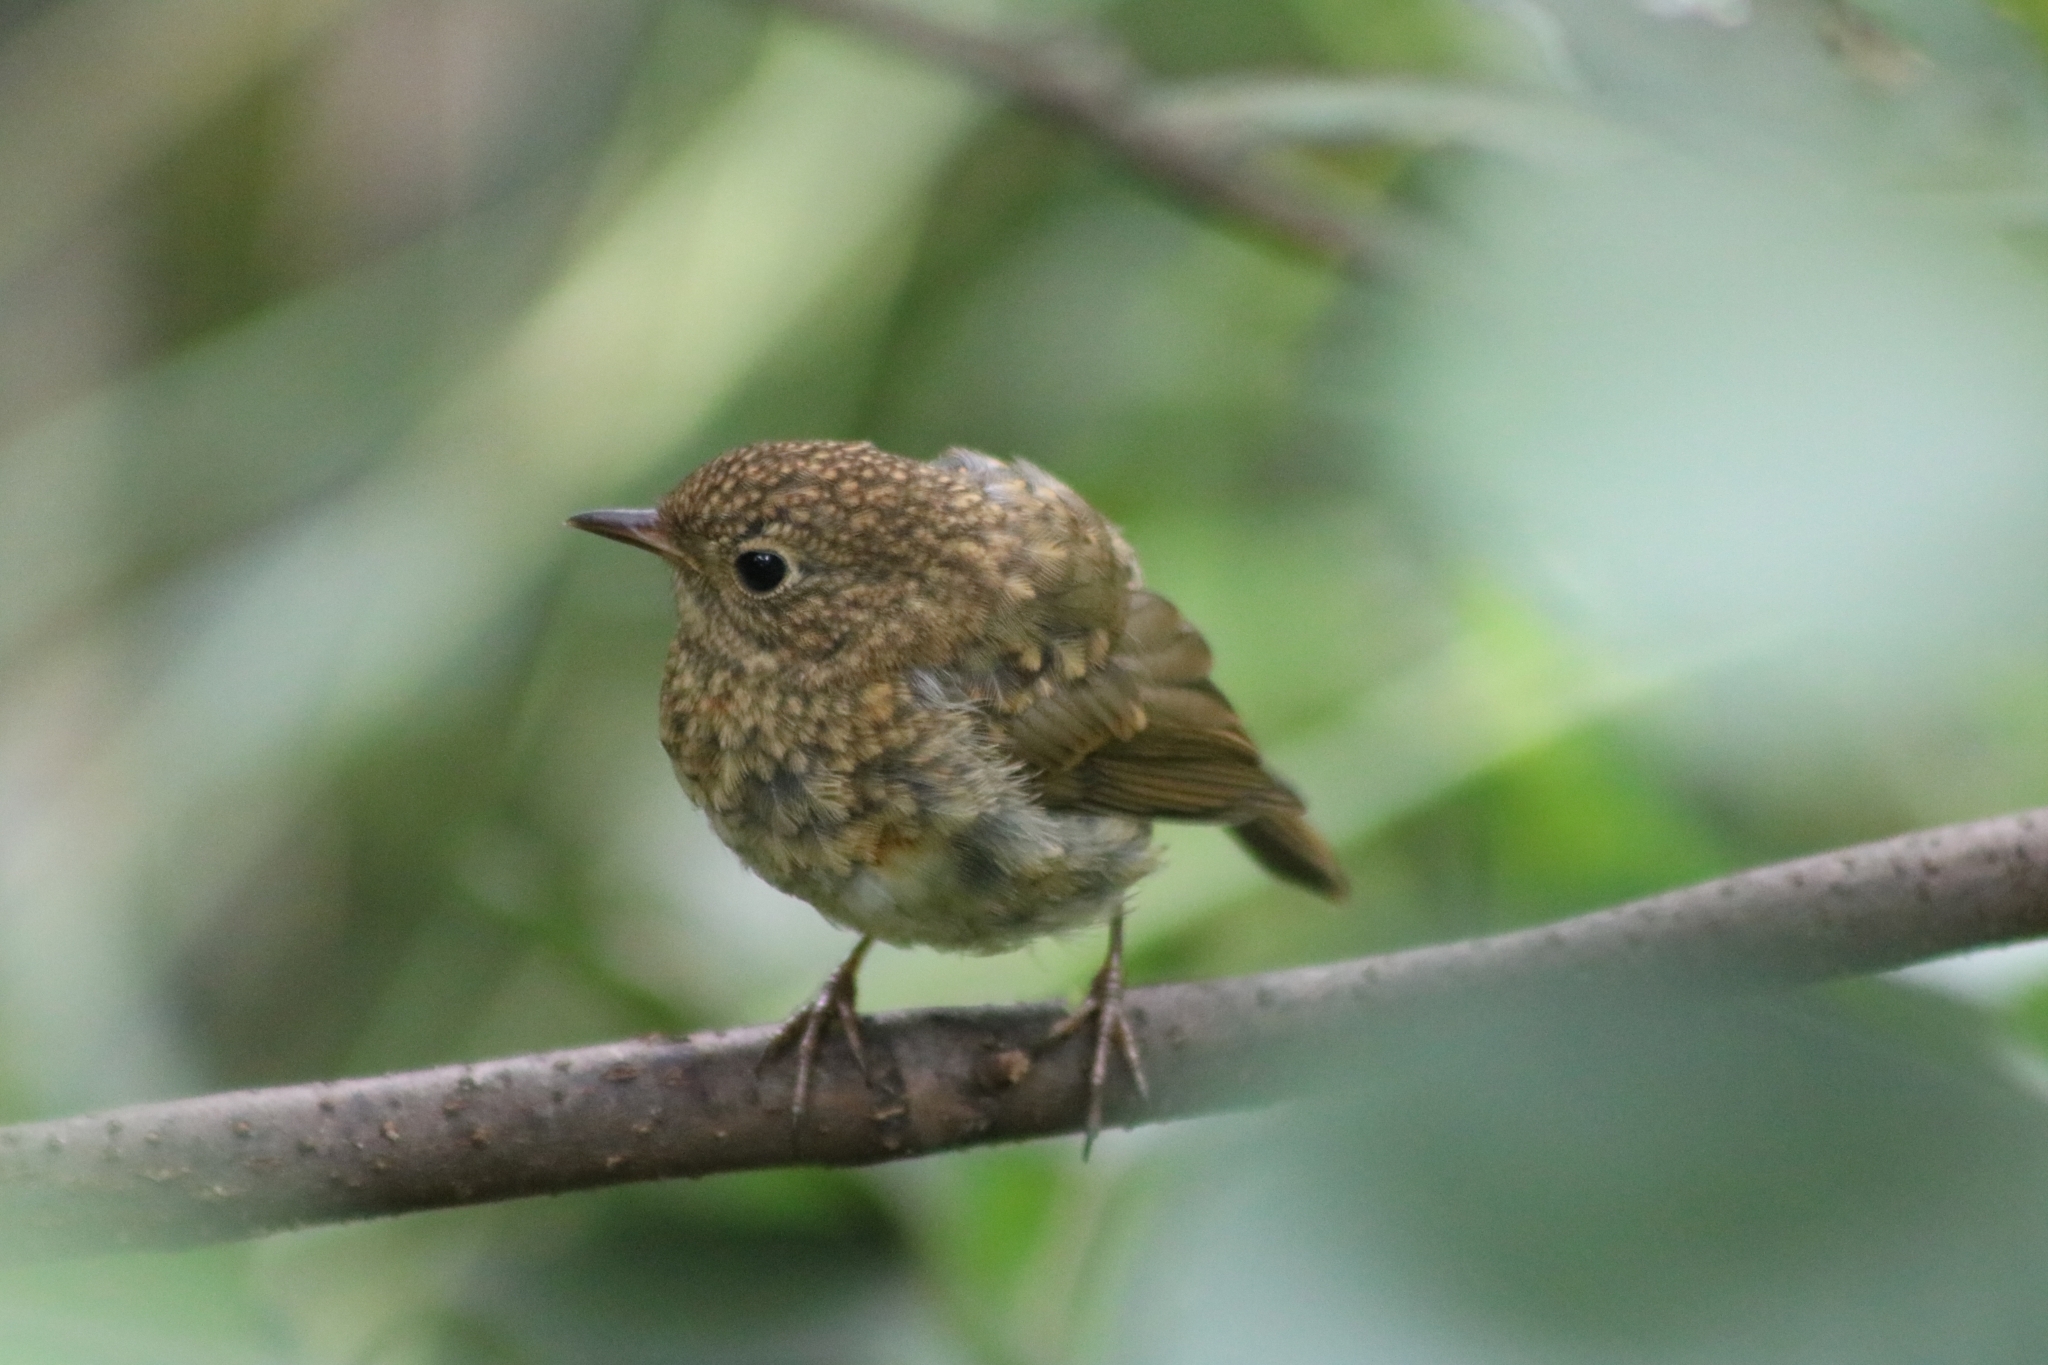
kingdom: Animalia
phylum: Chordata
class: Aves
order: Passeriformes
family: Muscicapidae
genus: Erithacus
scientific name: Erithacus rubecula
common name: European robin
